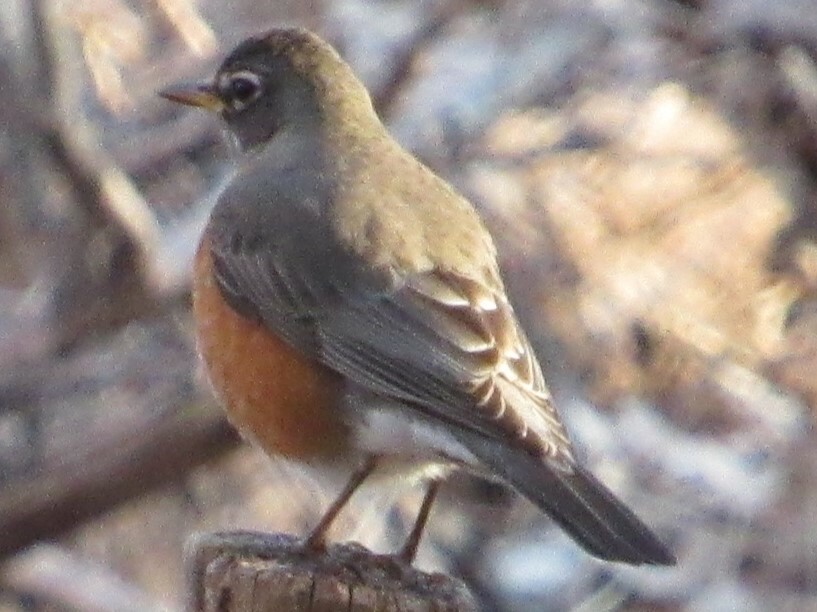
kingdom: Animalia
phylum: Chordata
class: Aves
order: Passeriformes
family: Turdidae
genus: Turdus
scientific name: Turdus migratorius
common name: American robin
